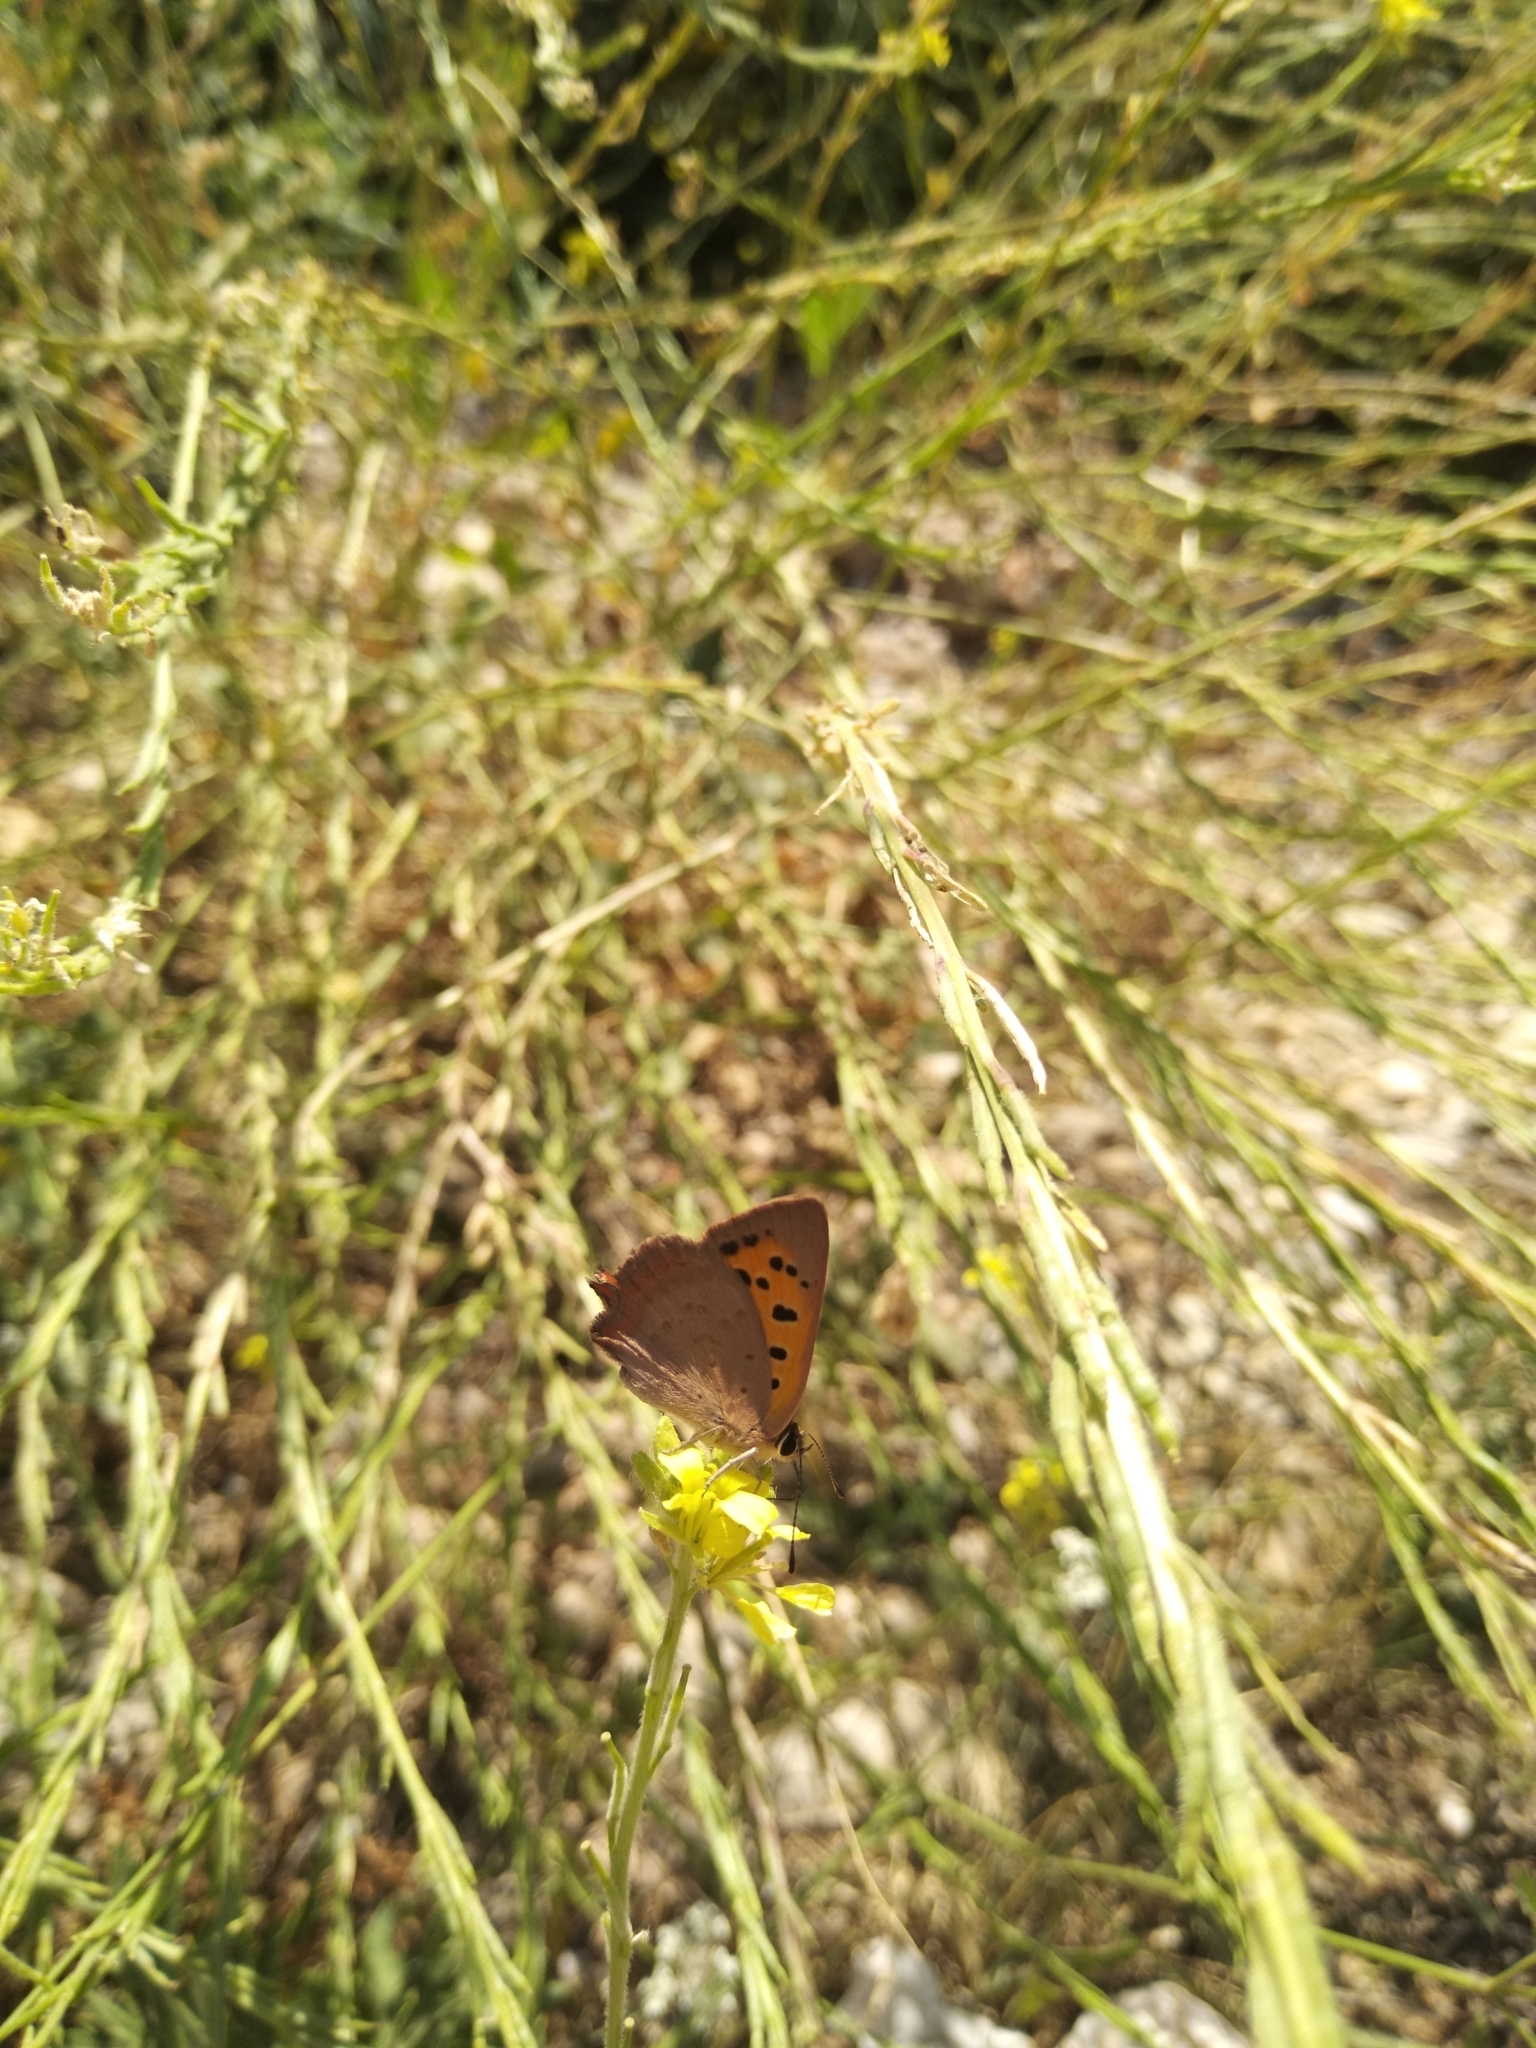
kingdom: Animalia
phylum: Arthropoda
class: Insecta
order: Lepidoptera
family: Lycaenidae
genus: Lycaena
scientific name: Lycaena phlaeas
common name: Small copper
